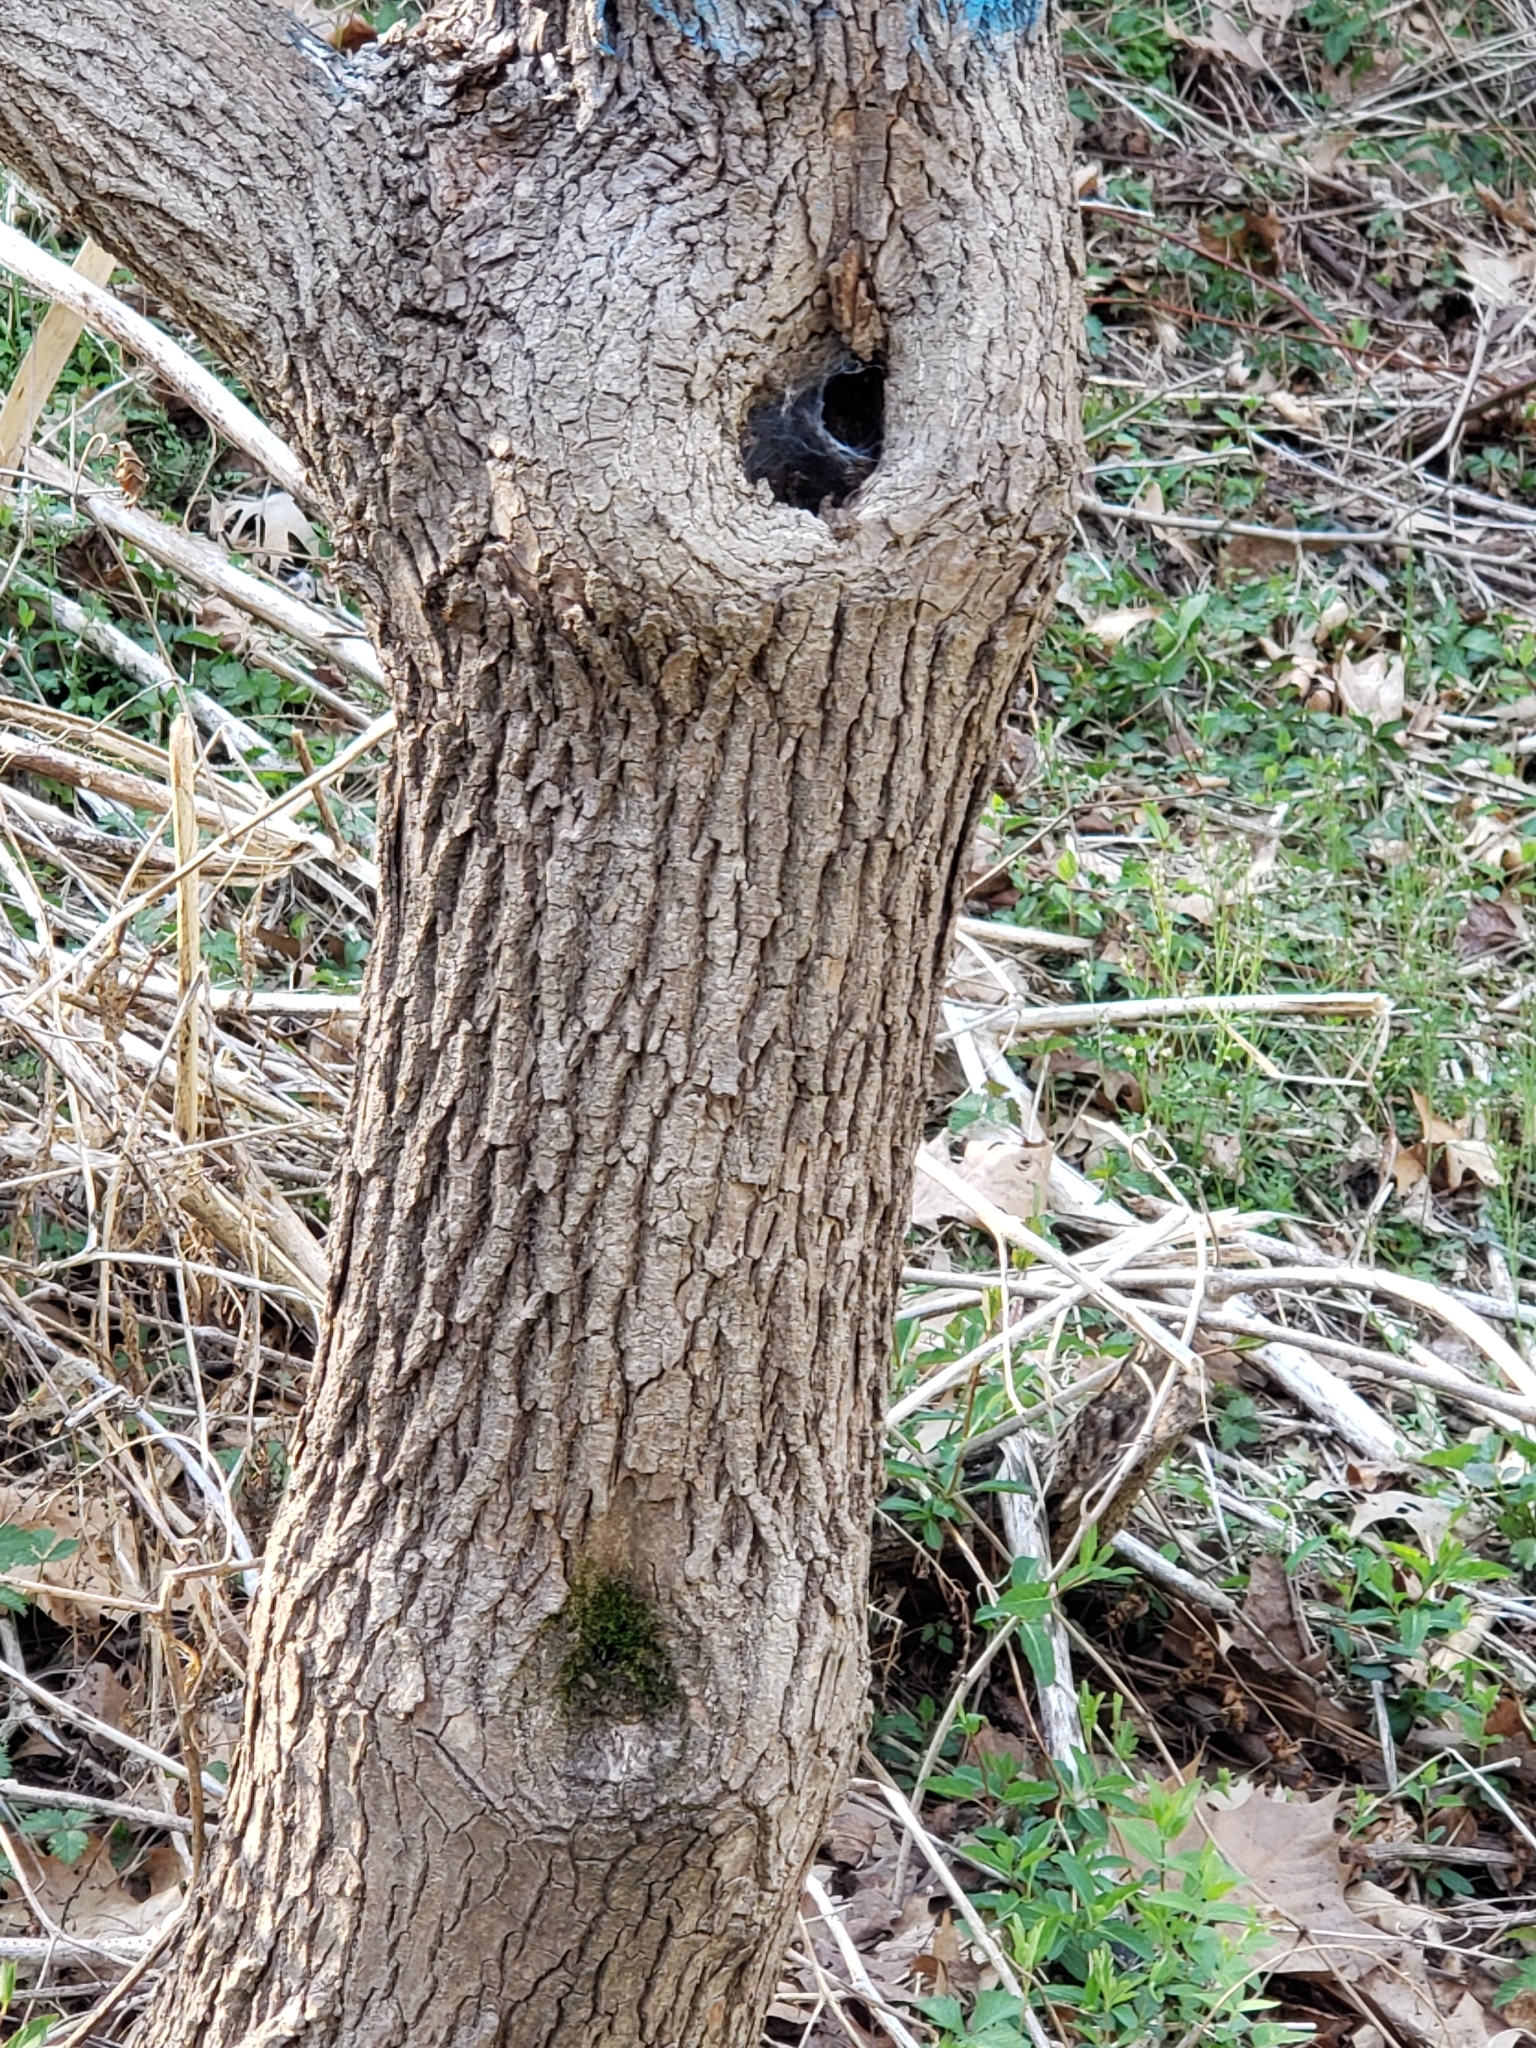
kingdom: Plantae
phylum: Tracheophyta
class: Magnoliopsida
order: Sapindales
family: Sapindaceae
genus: Acer
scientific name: Acer platanoides
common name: Norway maple
